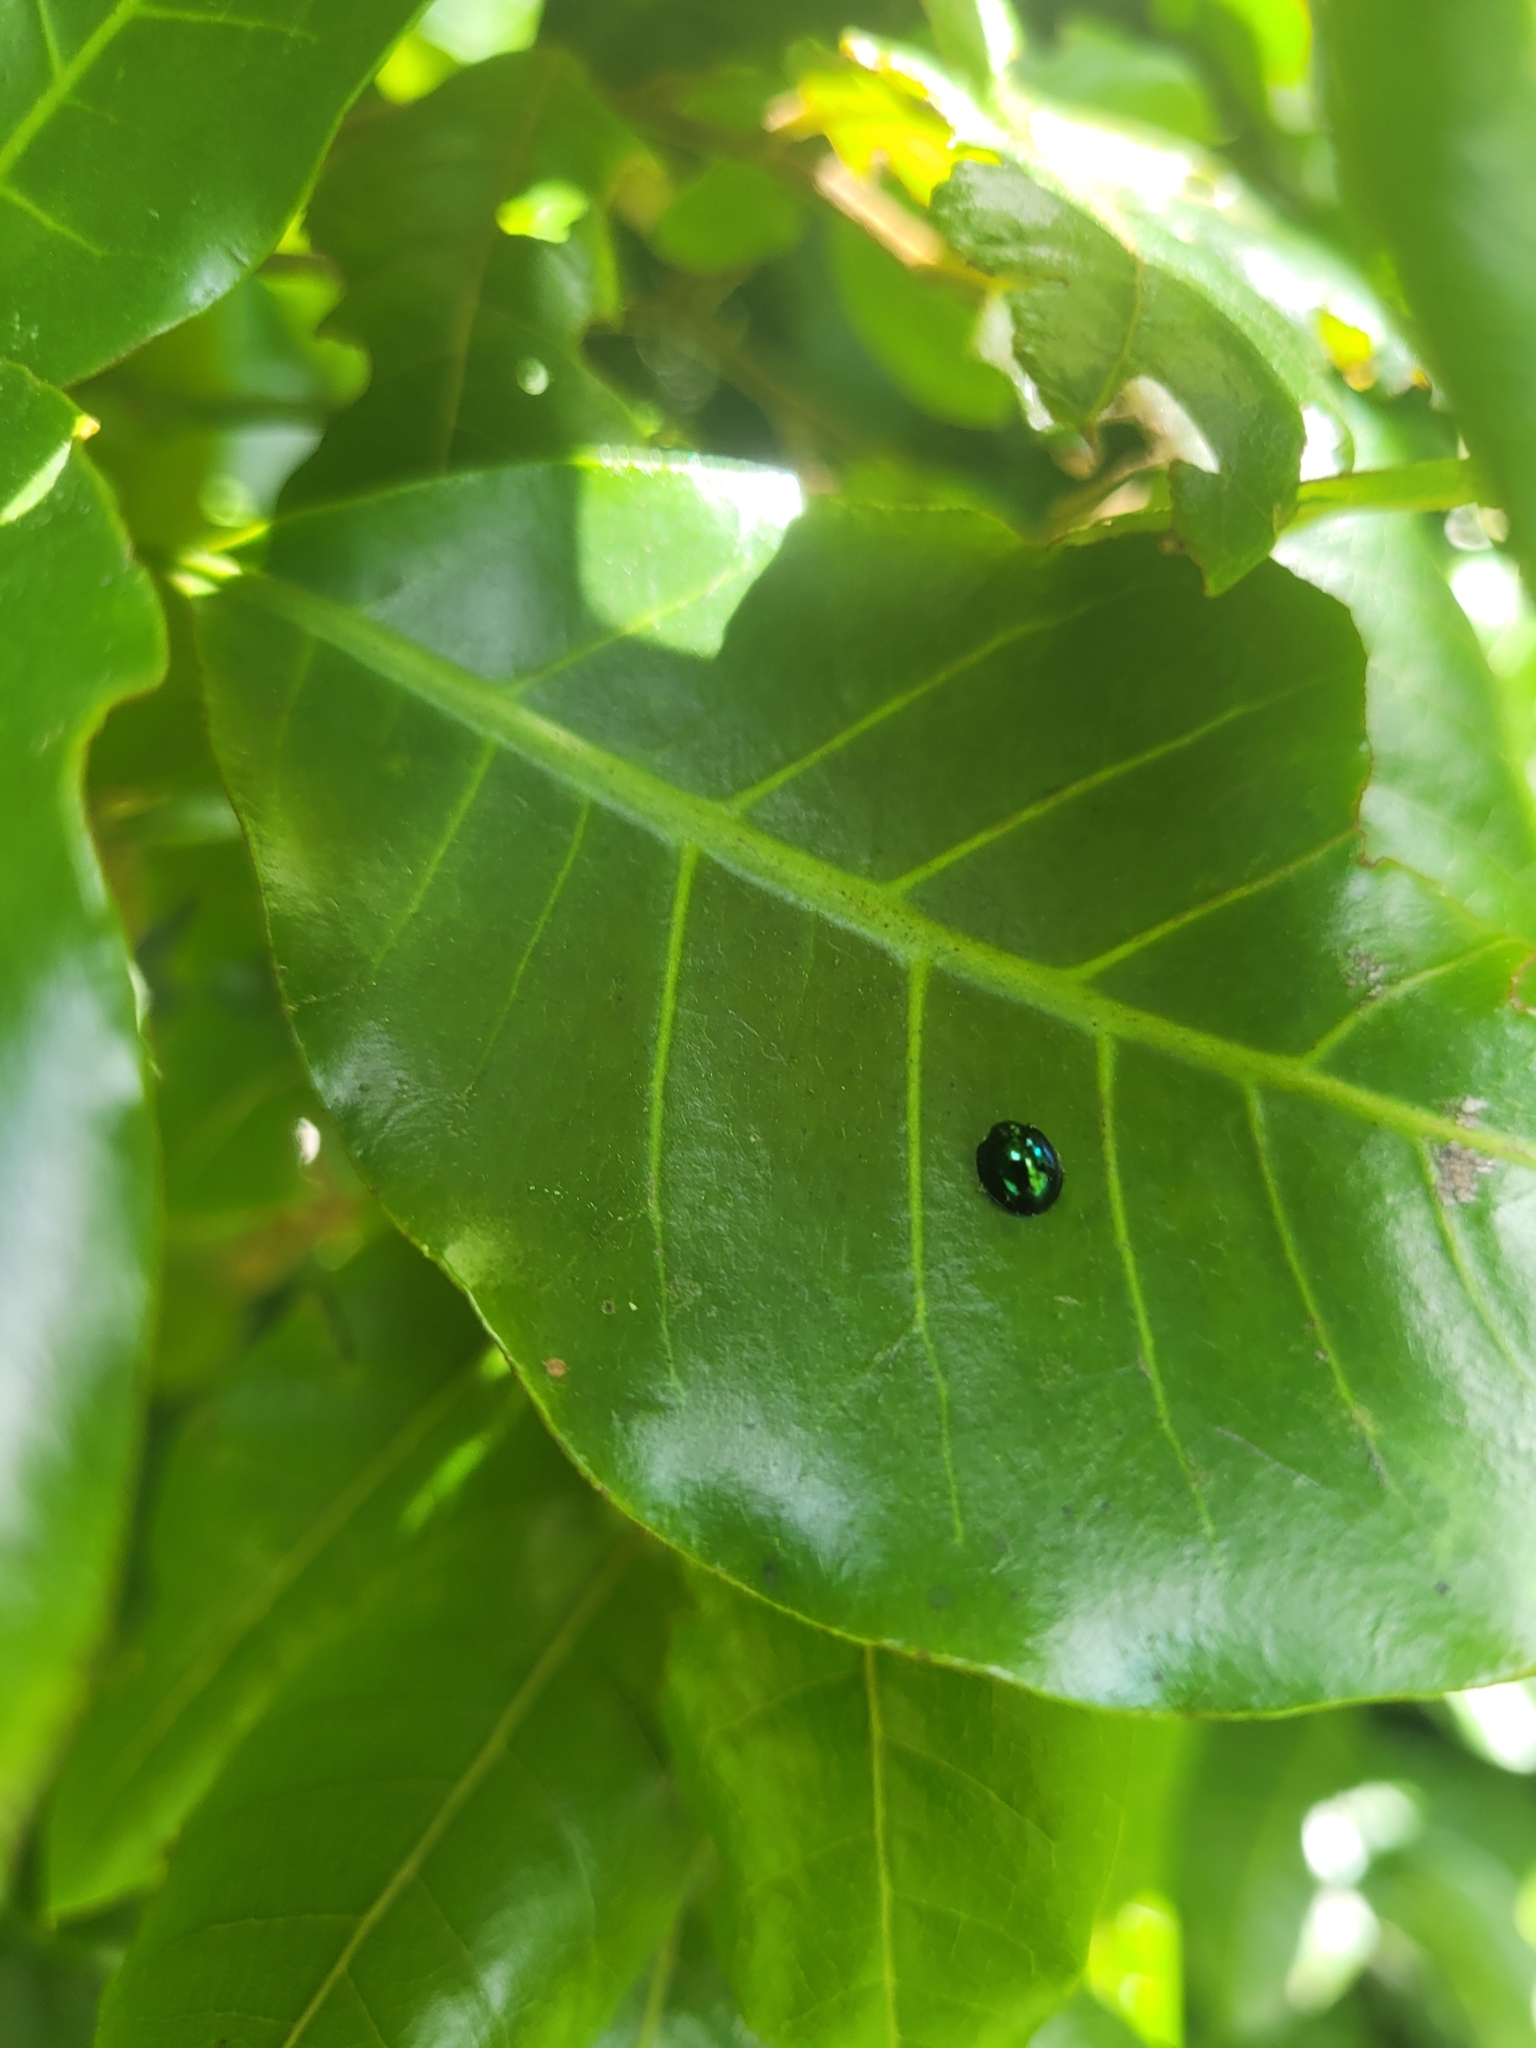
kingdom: Animalia
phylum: Arthropoda
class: Insecta
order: Coleoptera
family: Coccinellidae
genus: Halmus
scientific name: Halmus chalybeus
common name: Steel blue ladybird beetle
